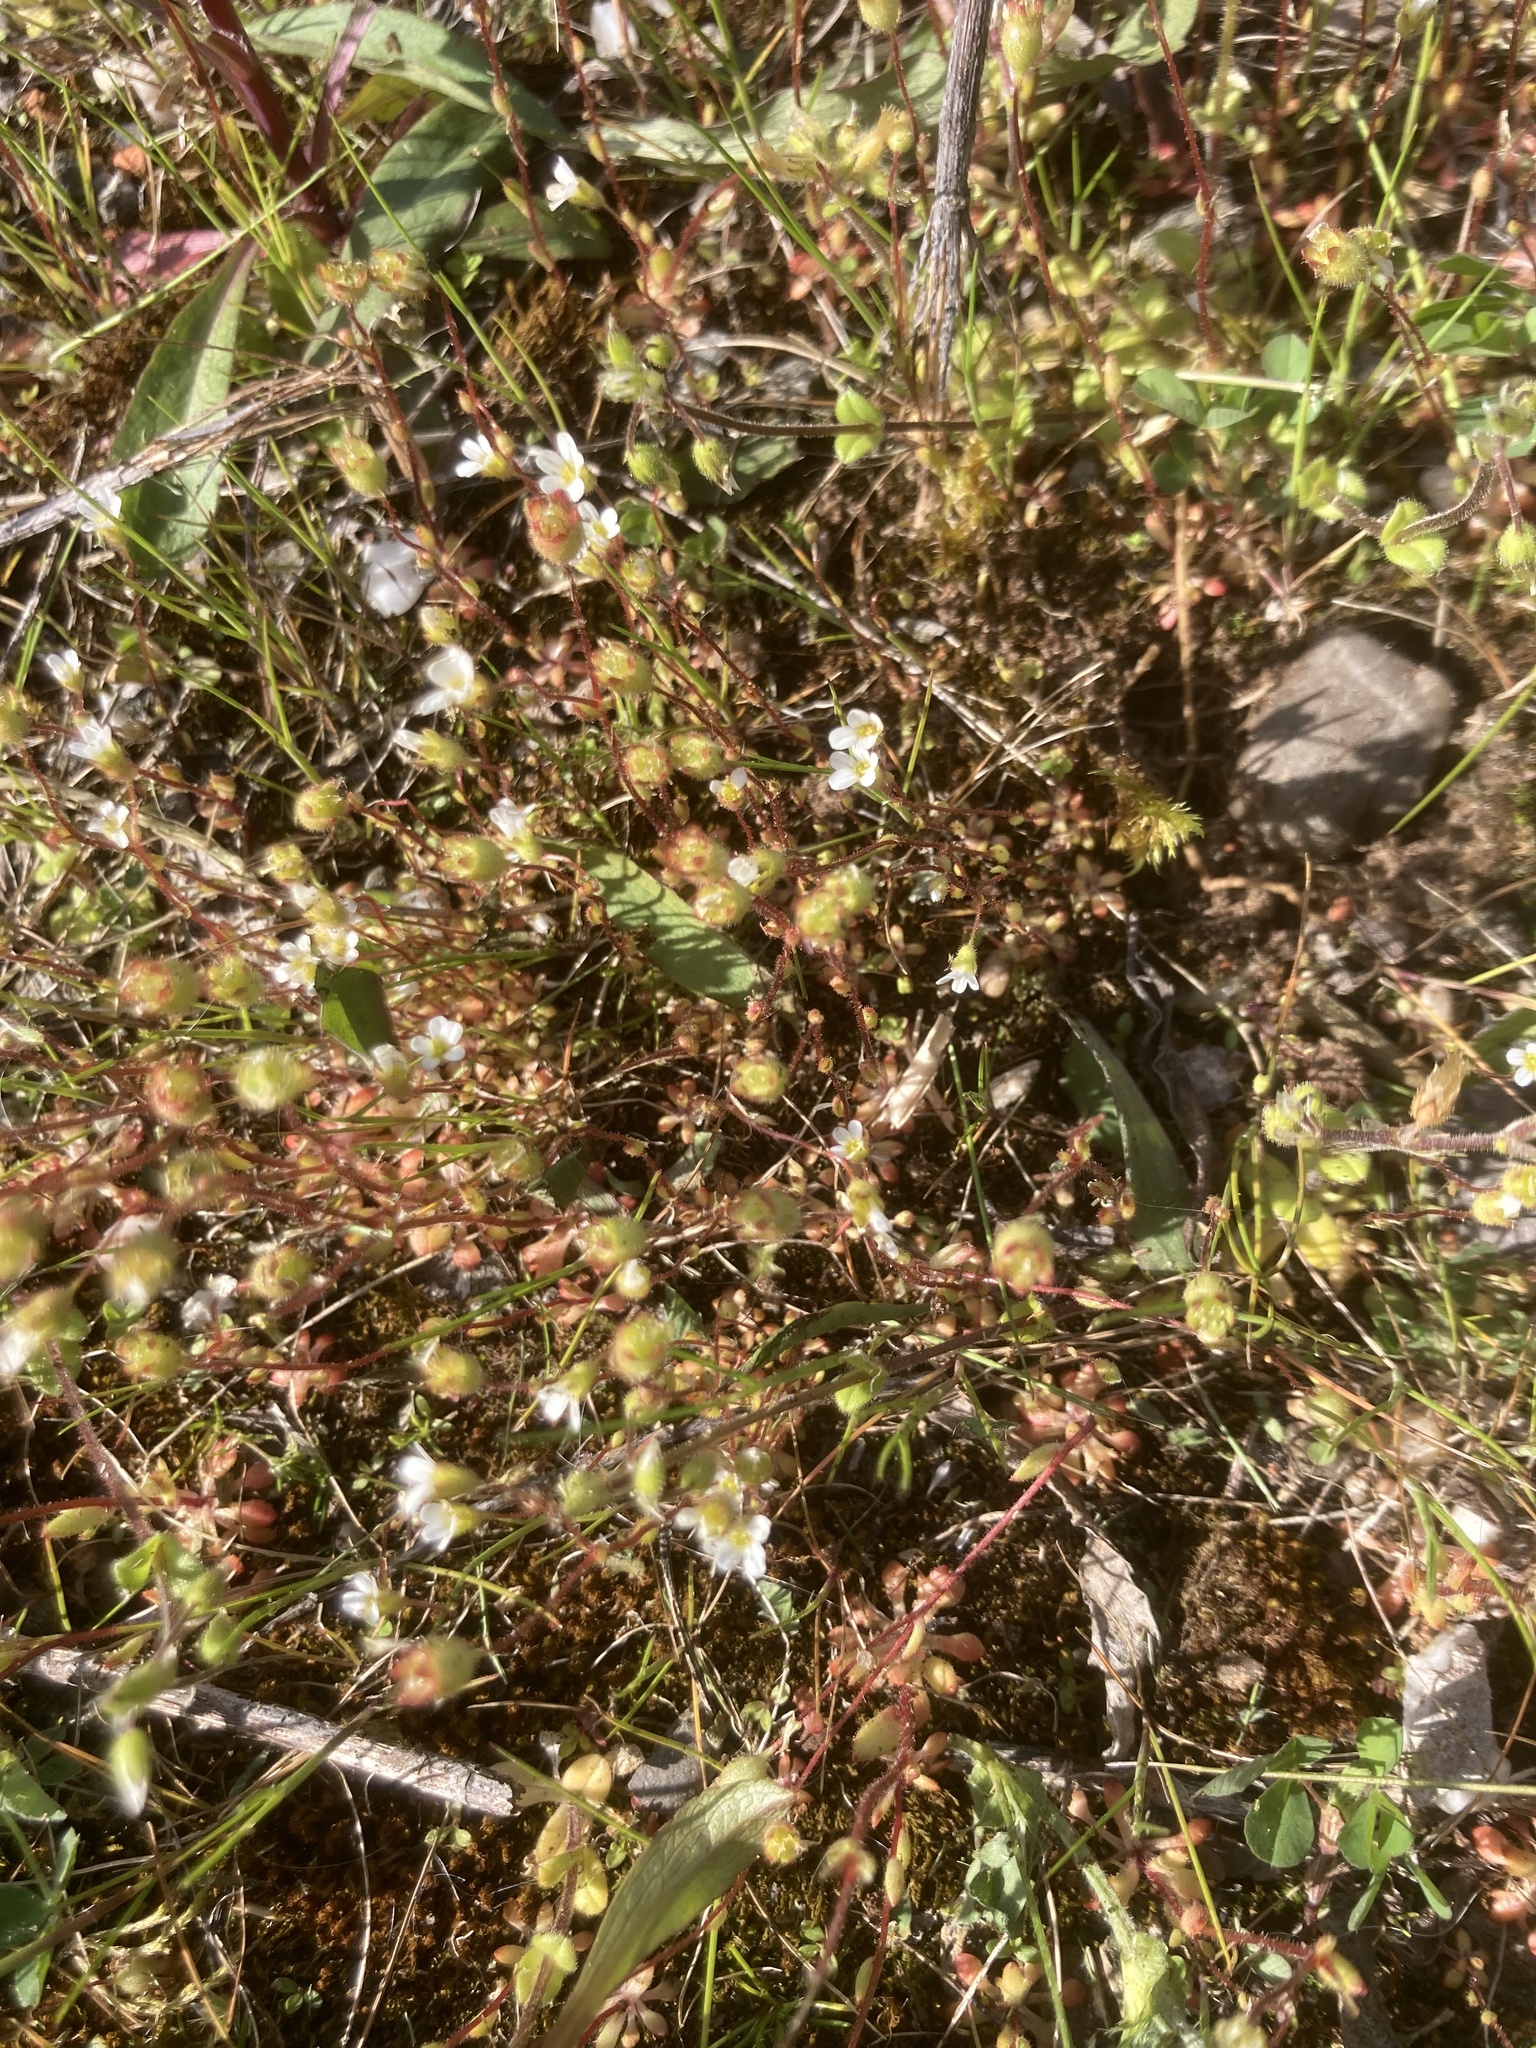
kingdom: Plantae
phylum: Tracheophyta
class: Magnoliopsida
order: Saxifragales
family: Saxifragaceae
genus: Saxifraga
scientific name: Saxifraga tridactylites
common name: Rue-leaved saxifrage
